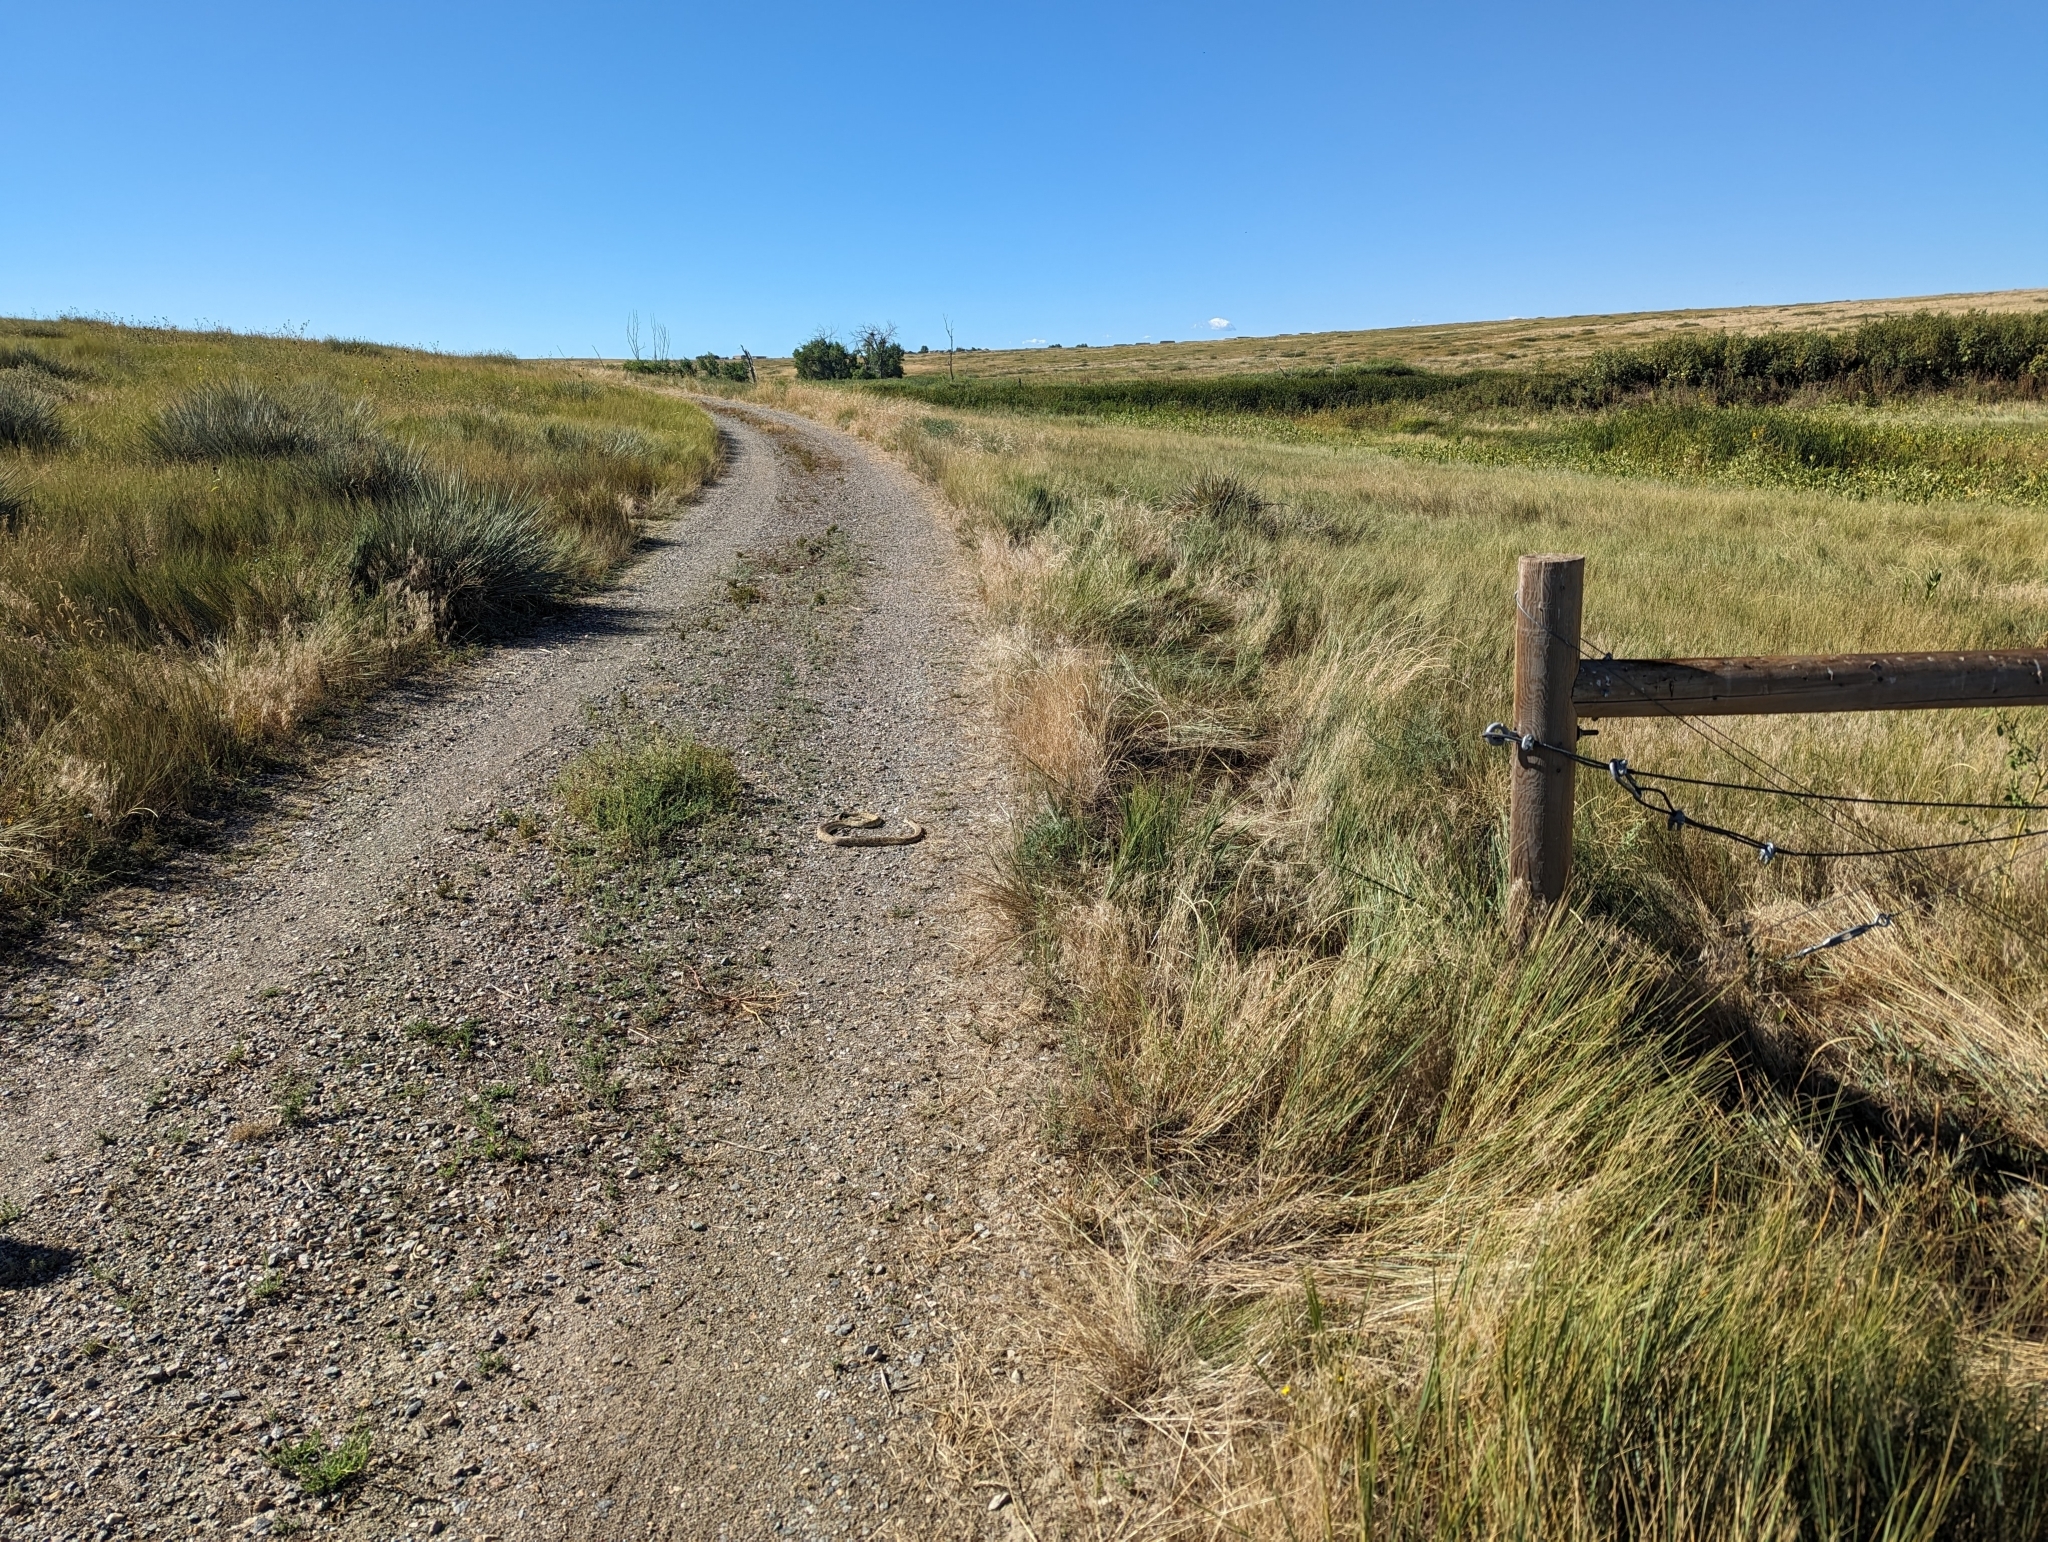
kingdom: Animalia
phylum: Chordata
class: Squamata
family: Viperidae
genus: Crotalus
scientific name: Crotalus viridis
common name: Prairie rattlesnake
